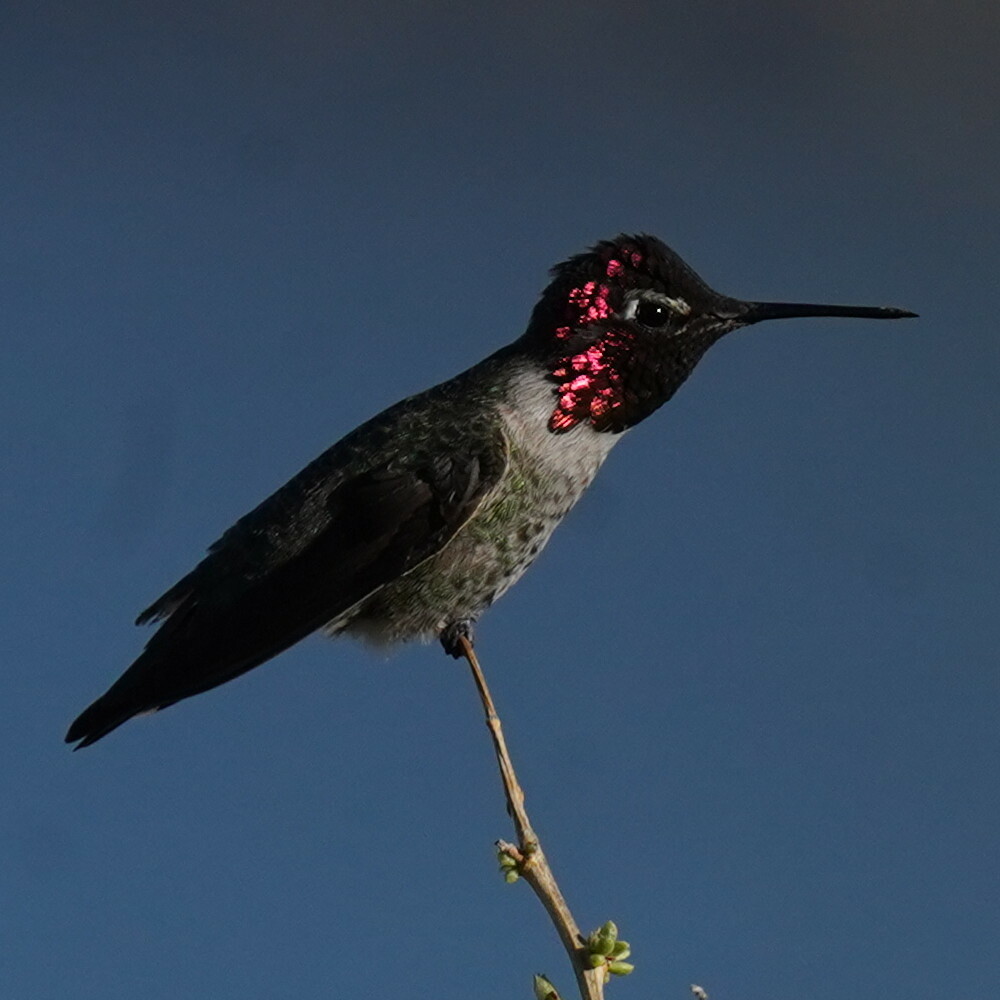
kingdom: Animalia
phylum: Chordata
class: Aves
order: Apodiformes
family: Trochilidae
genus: Calypte
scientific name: Calypte anna
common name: Anna's hummingbird
